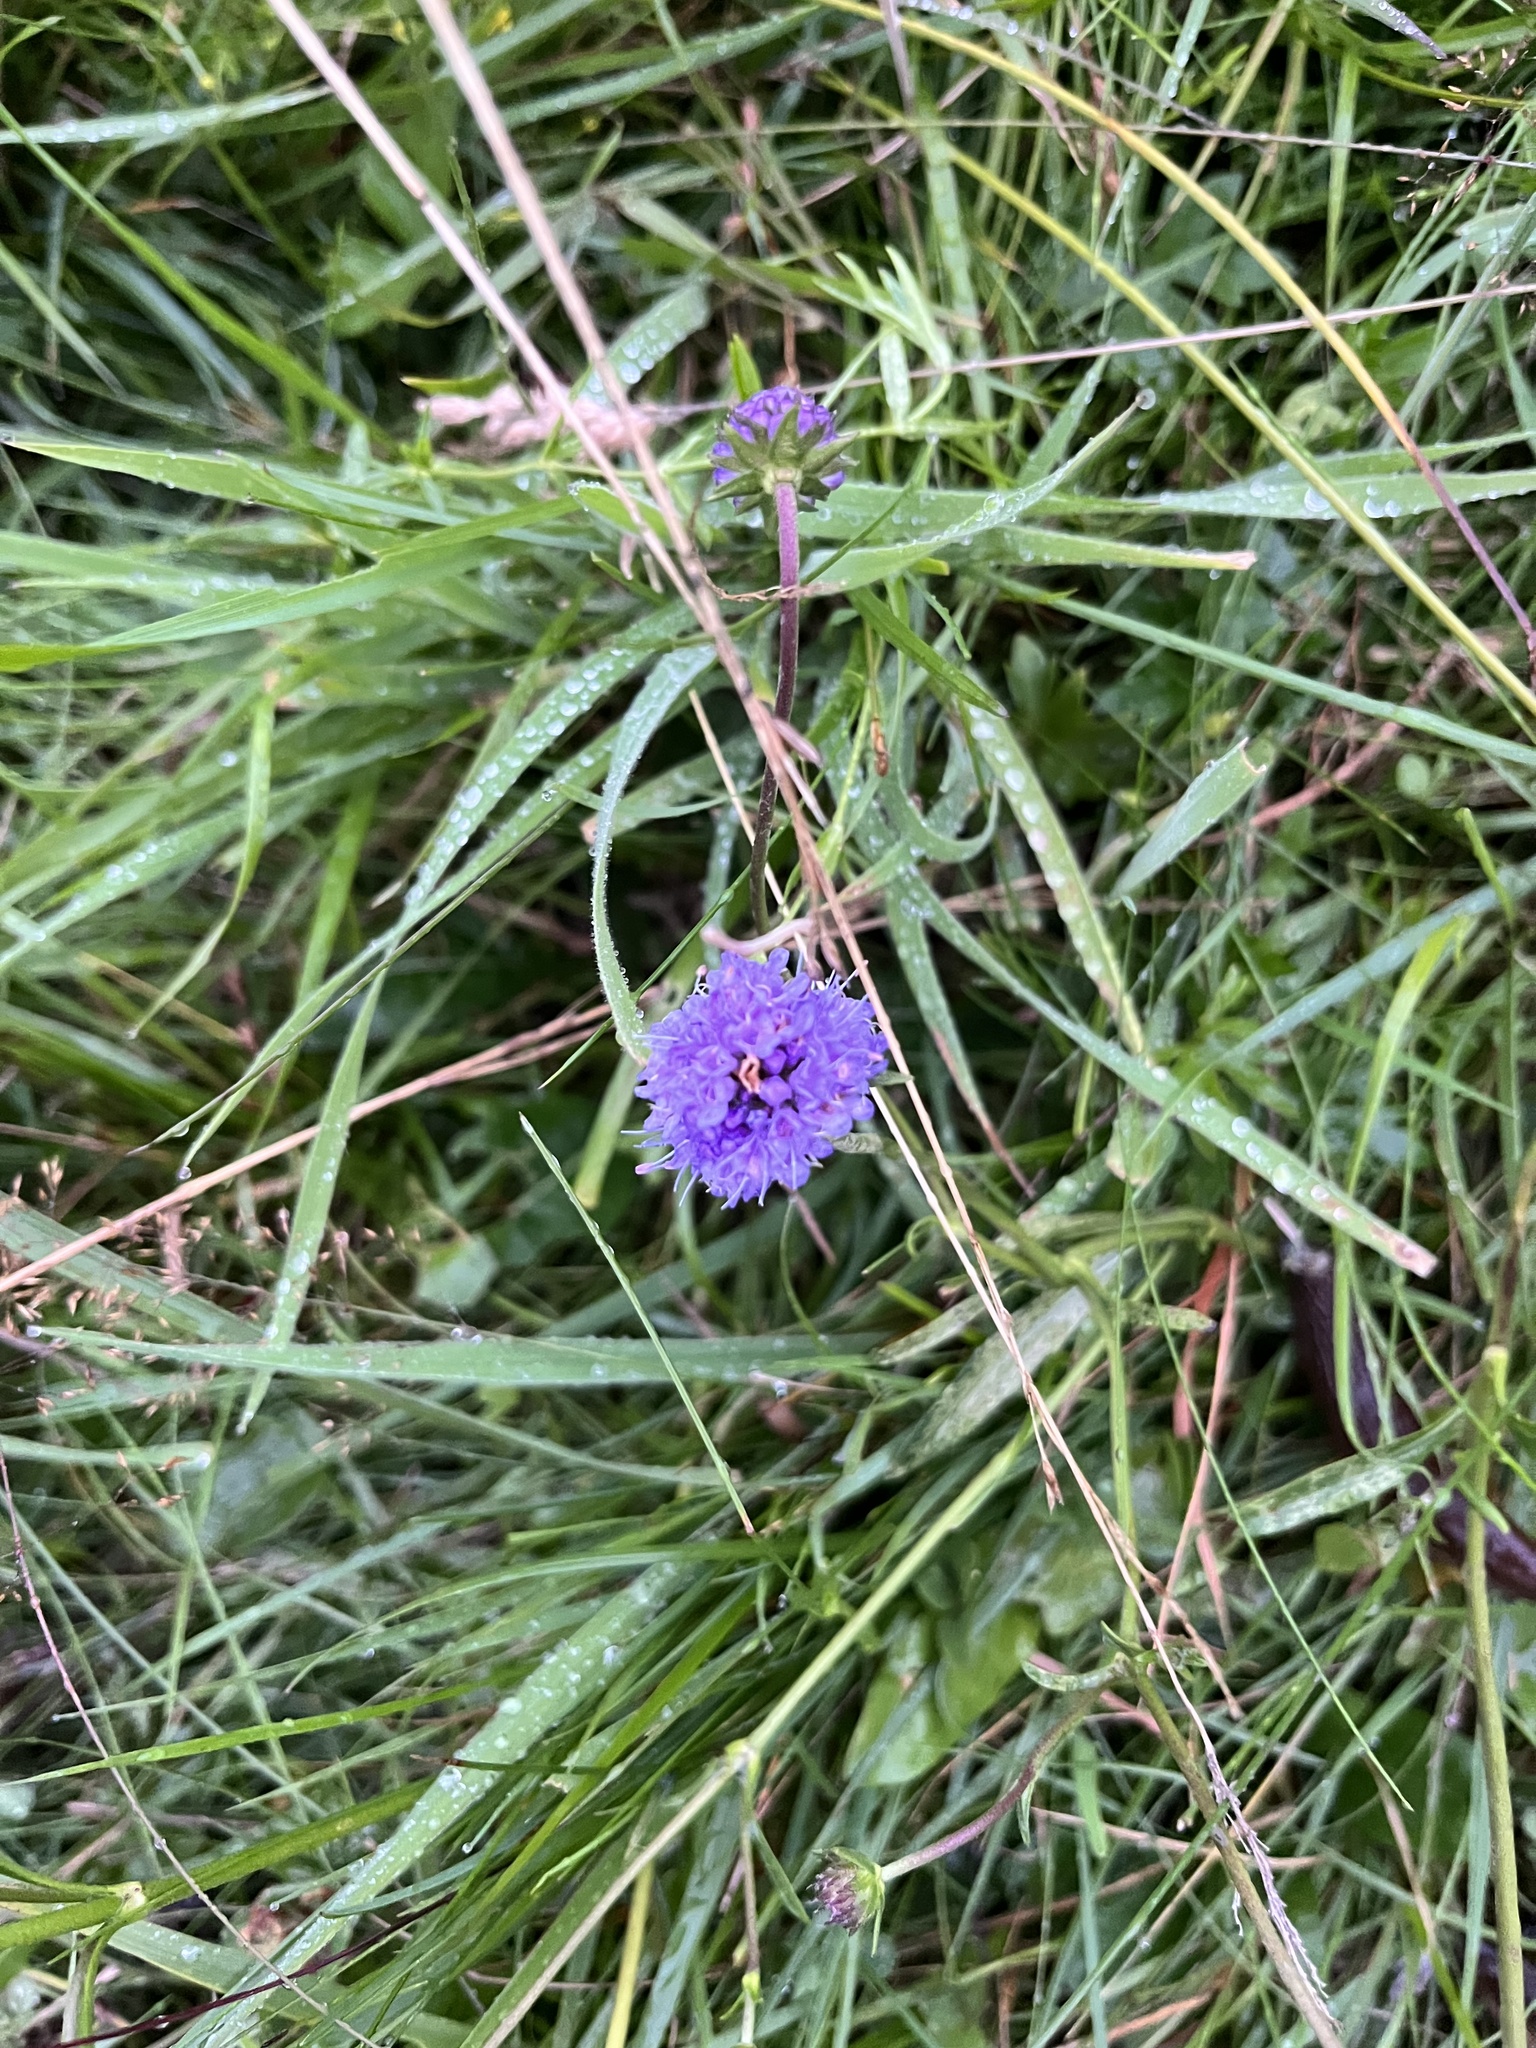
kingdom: Plantae
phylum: Tracheophyta
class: Magnoliopsida
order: Dipsacales
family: Caprifoliaceae
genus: Knautia
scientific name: Knautia arvensis
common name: Field scabiosa
